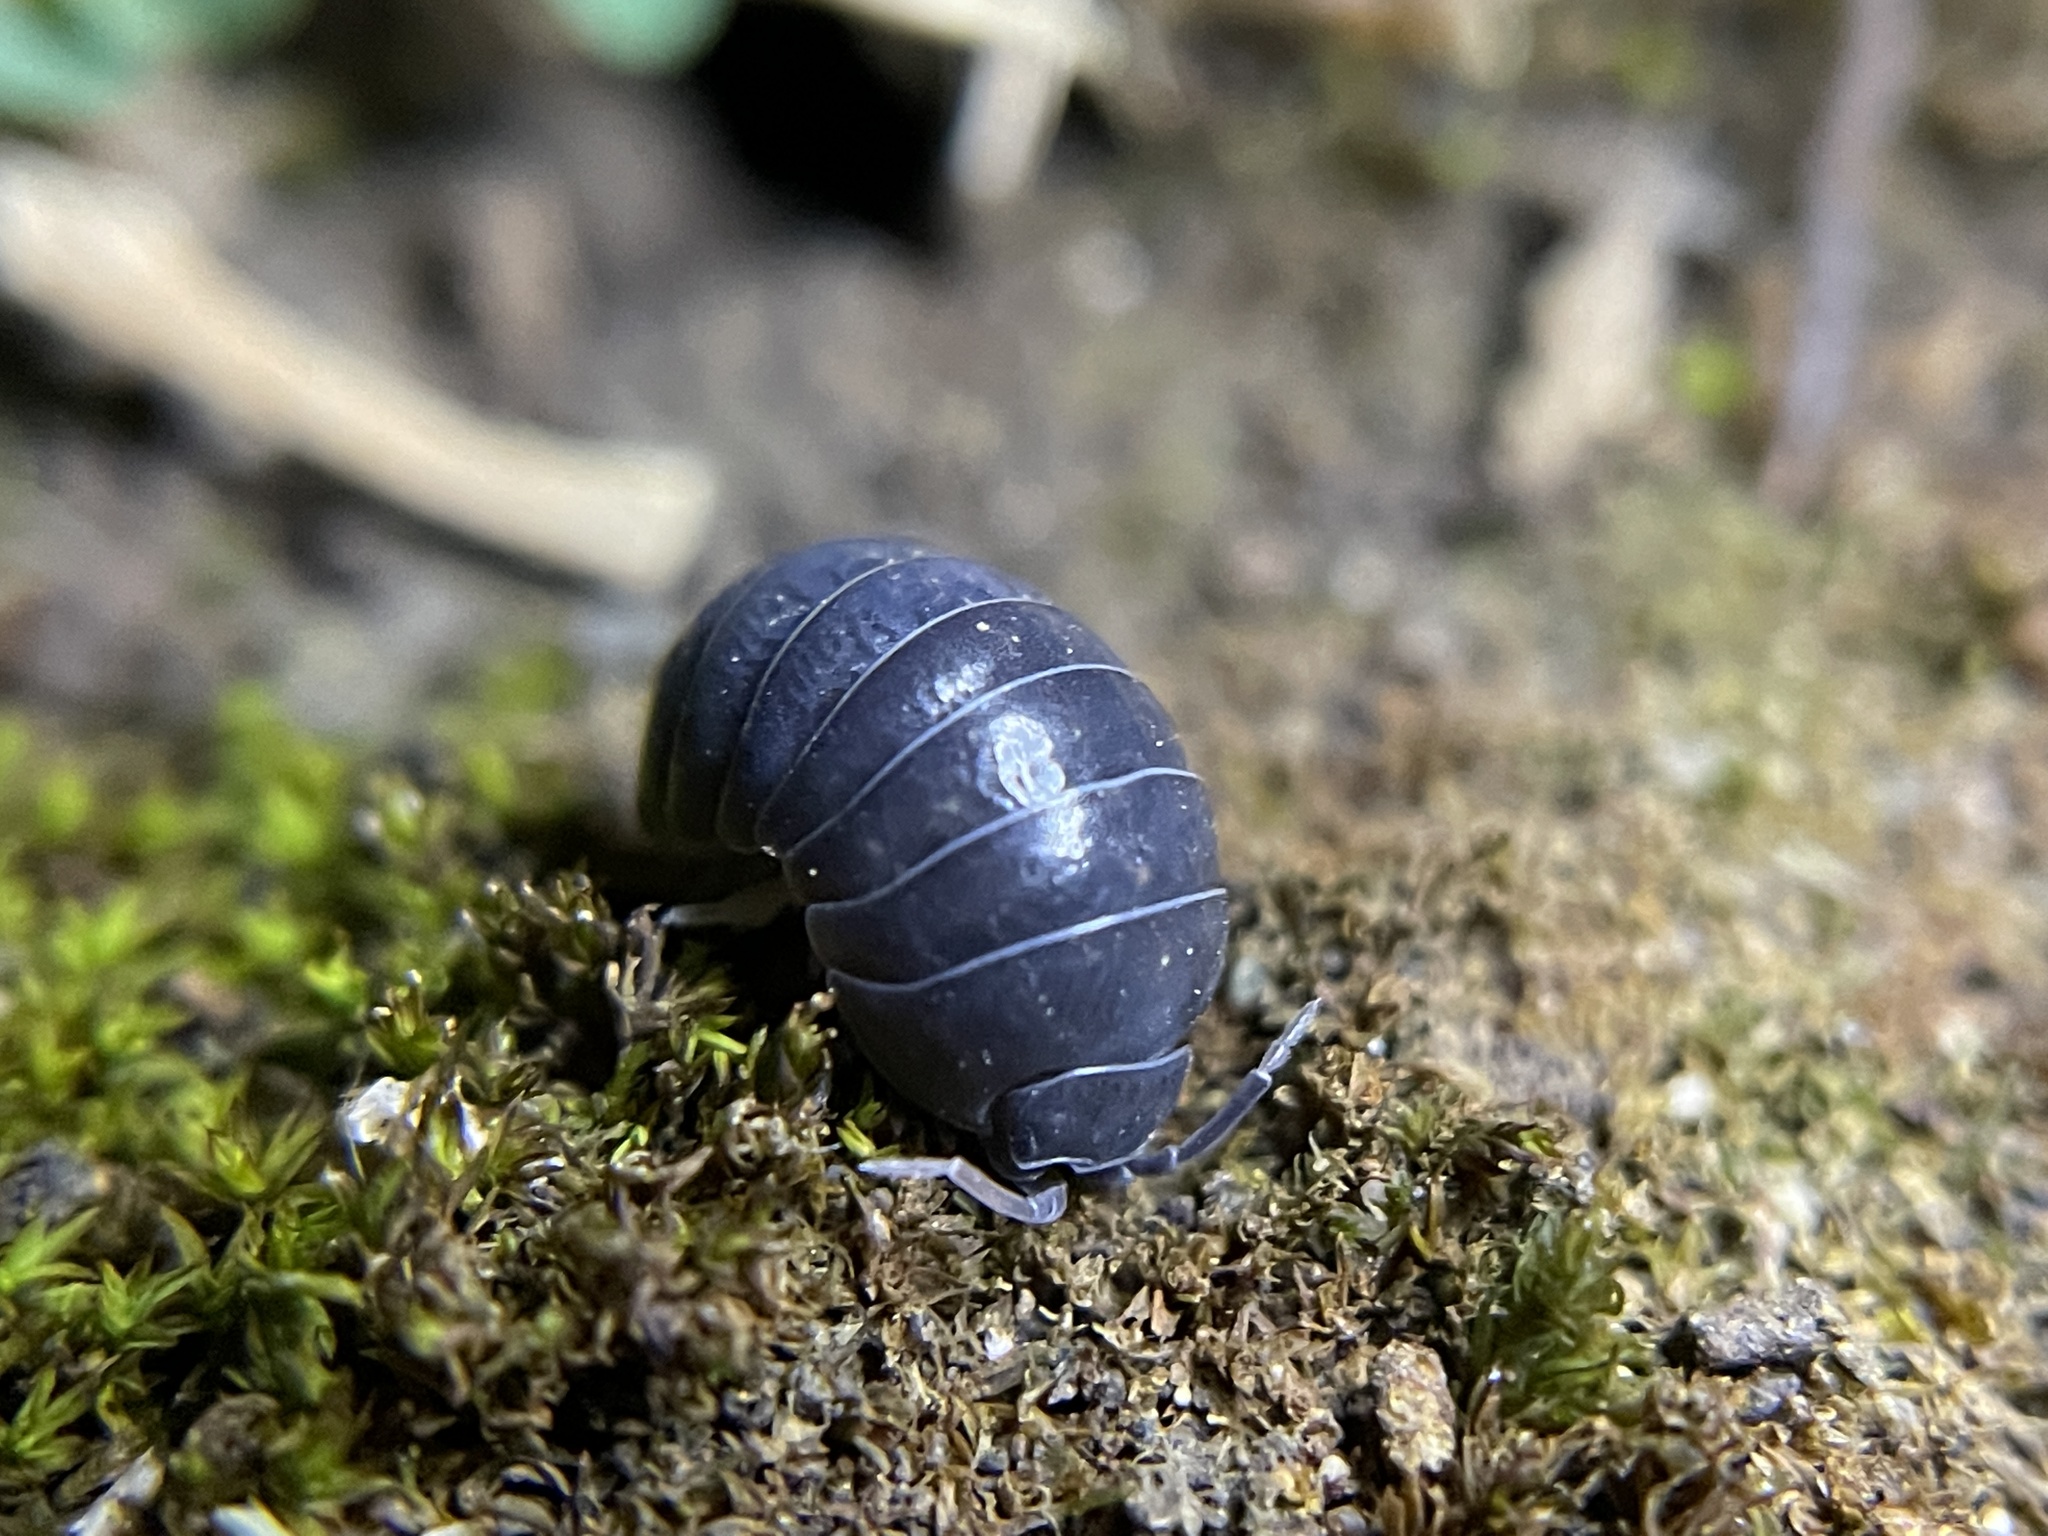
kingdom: Animalia
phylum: Arthropoda
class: Malacostraca
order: Isopoda
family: Armadillidiidae
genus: Armadillidium
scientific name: Armadillidium vulgare
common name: Common pill woodlouse
